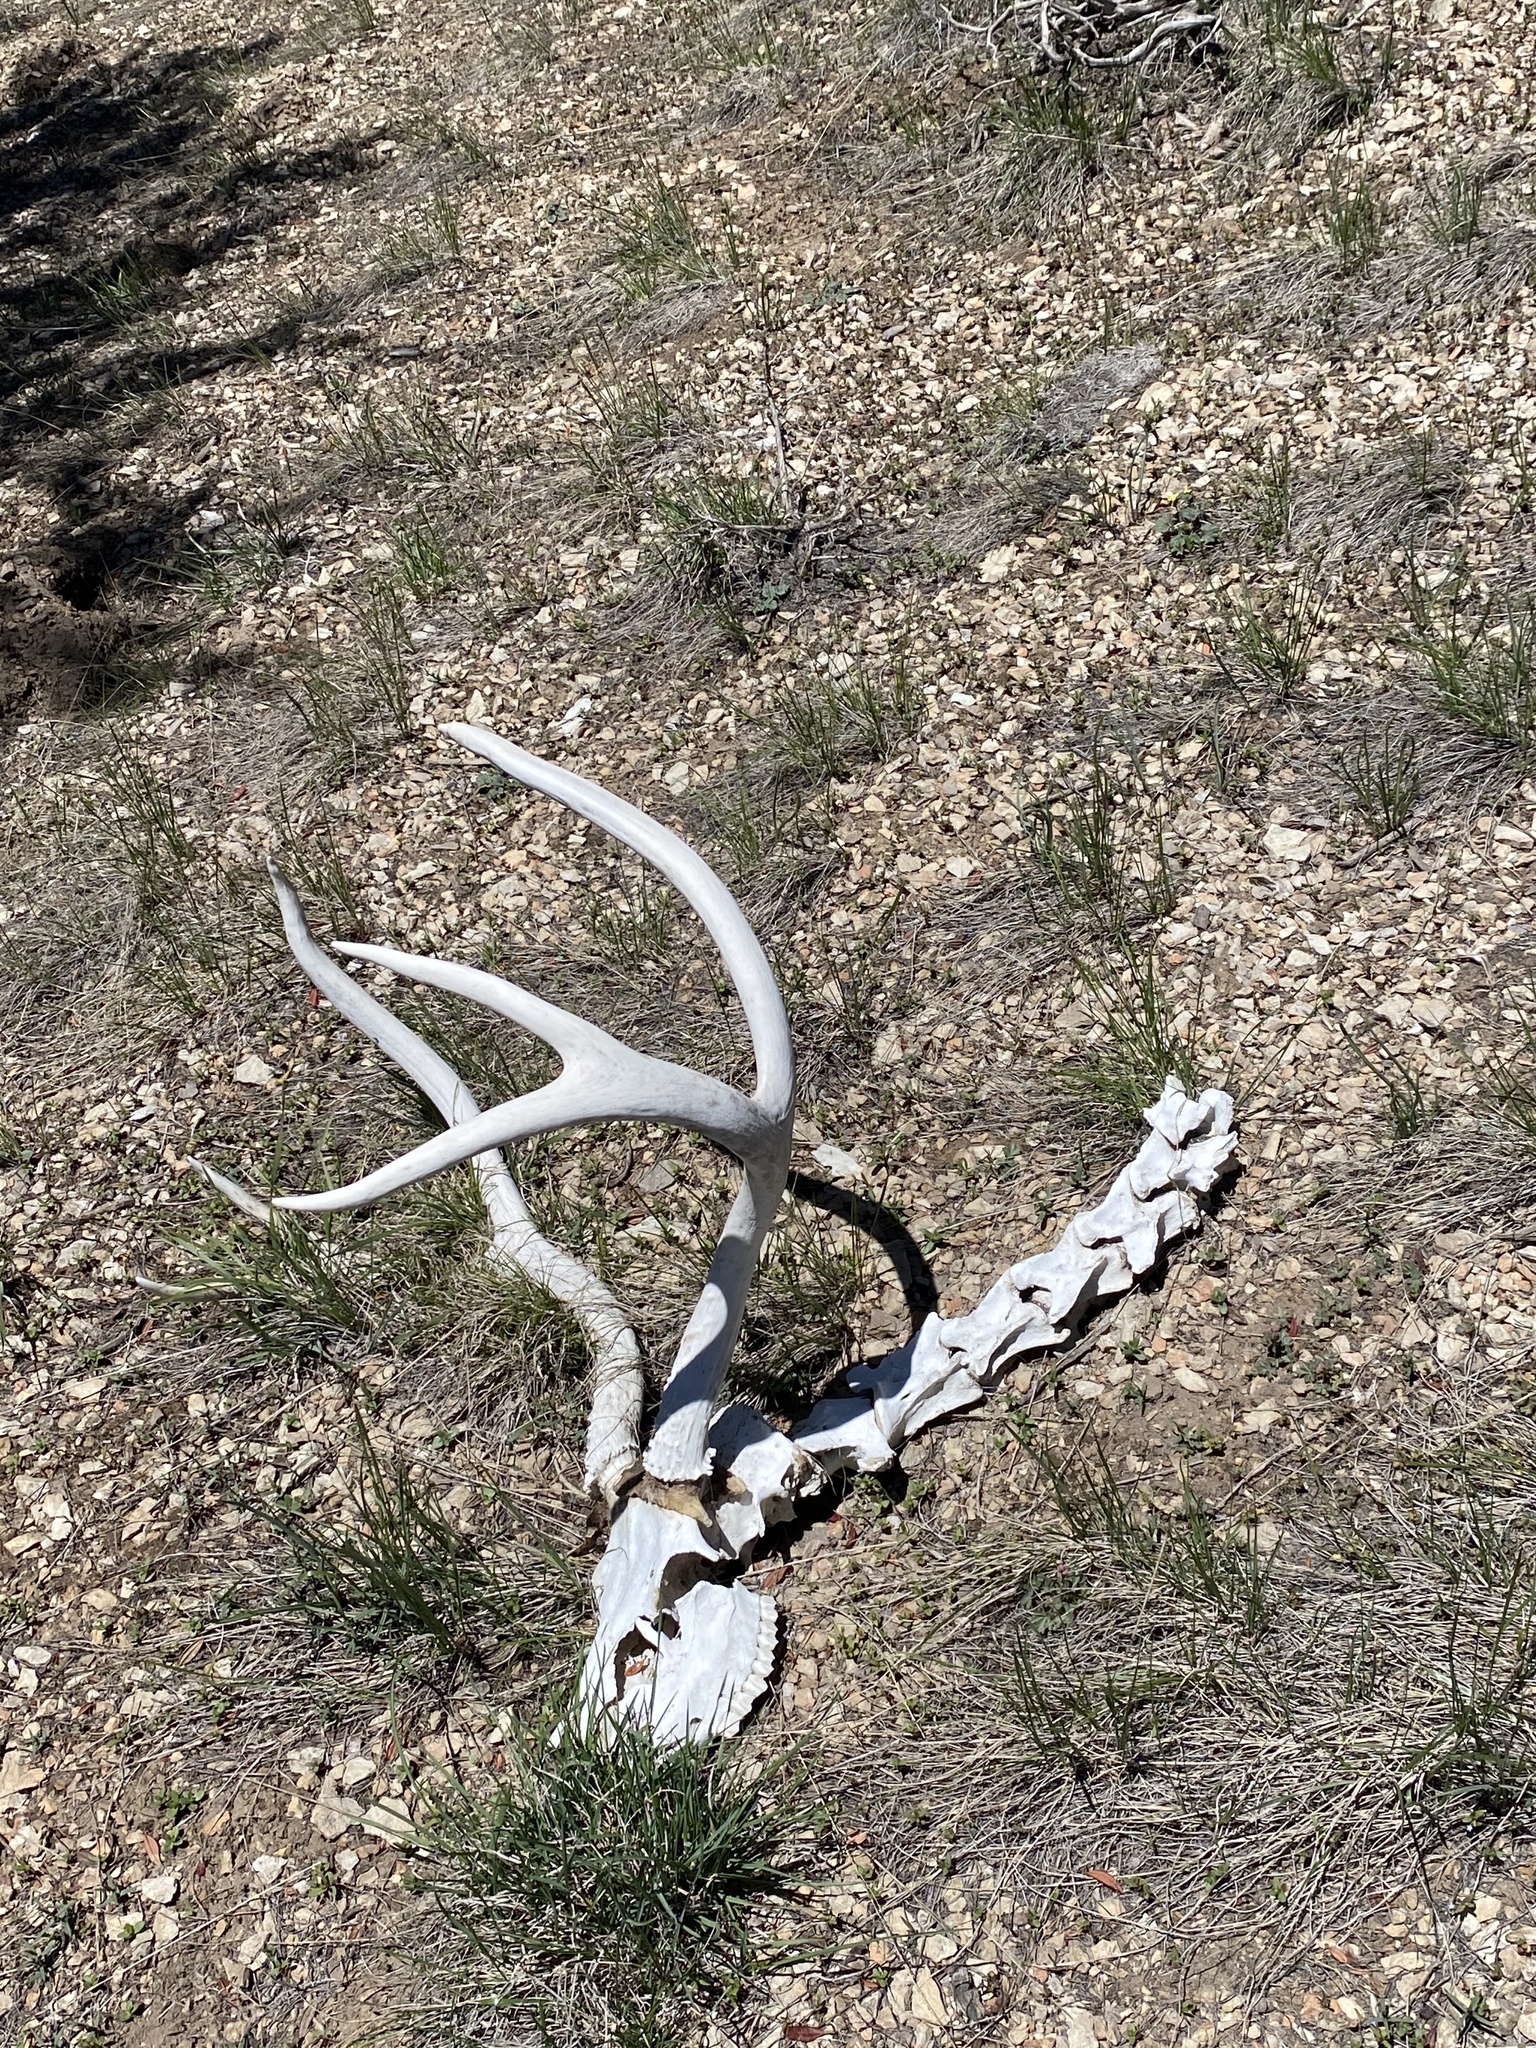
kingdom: Animalia
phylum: Chordata
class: Mammalia
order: Artiodactyla
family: Cervidae
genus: Odocoileus
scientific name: Odocoileus hemionus
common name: Mule deer
